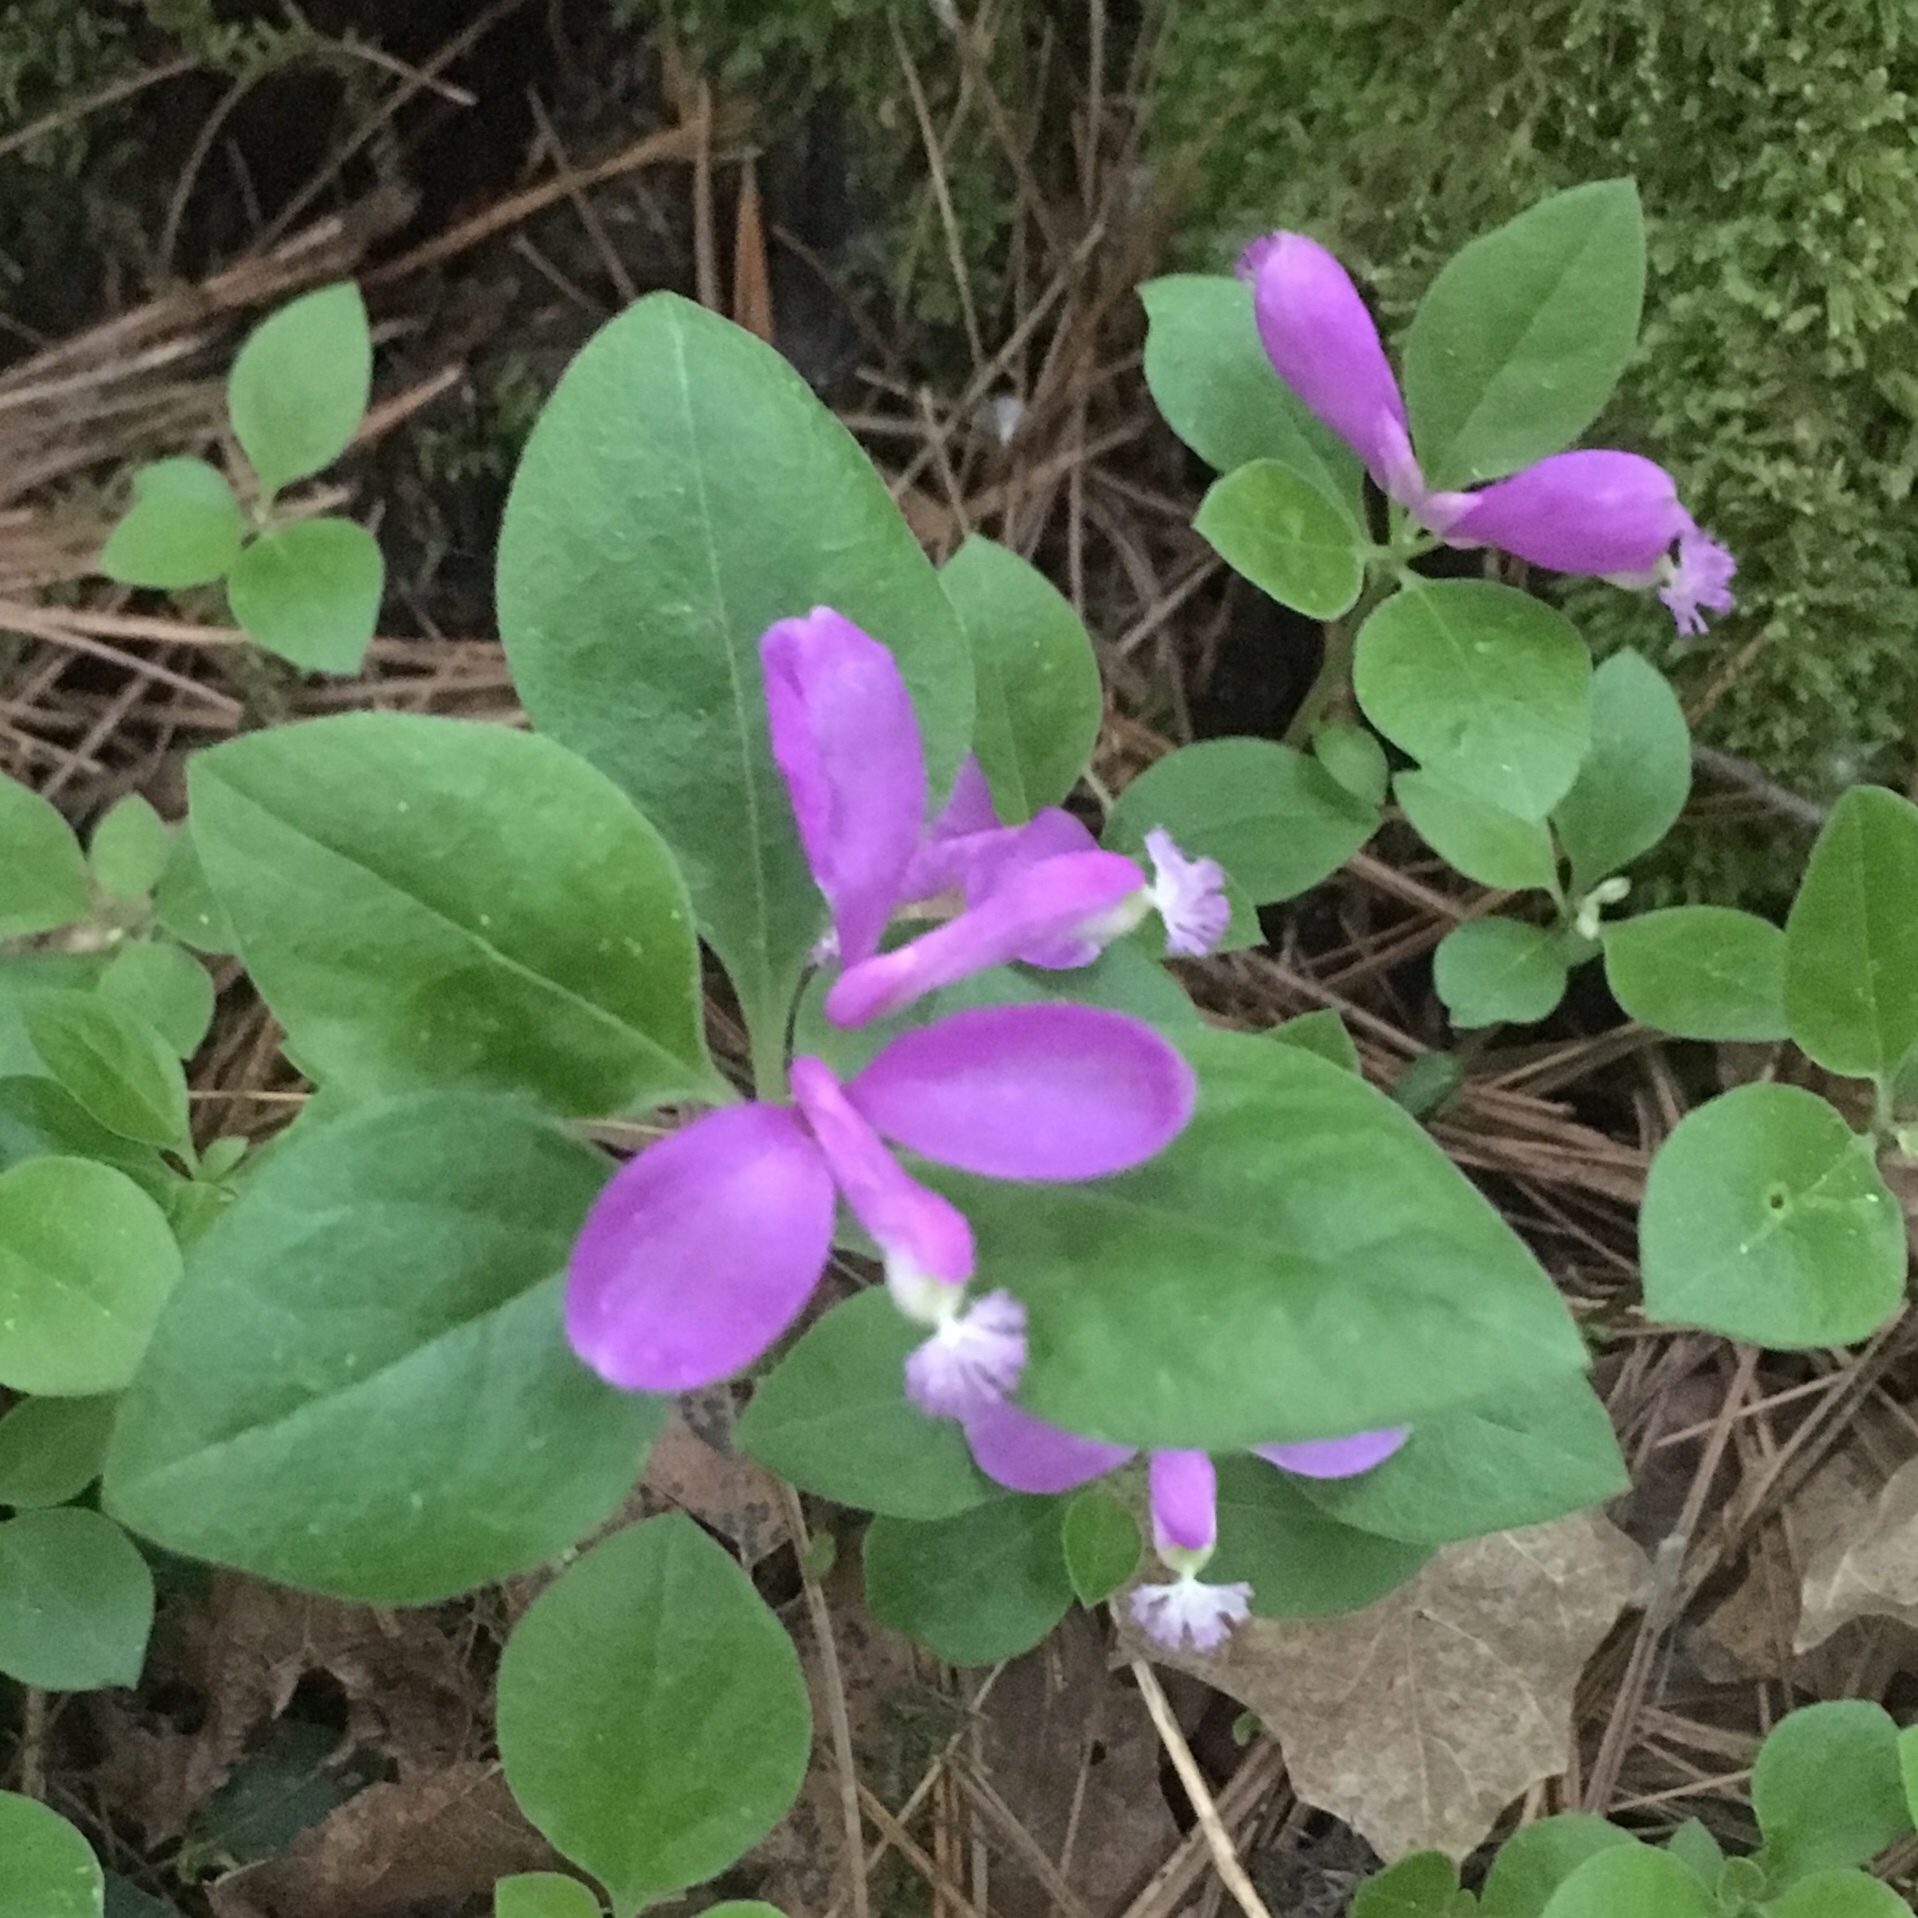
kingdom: Plantae
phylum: Tracheophyta
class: Magnoliopsida
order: Fabales
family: Polygalaceae
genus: Polygaloides
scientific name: Polygaloides paucifolia
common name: Bird-on-the-wing
